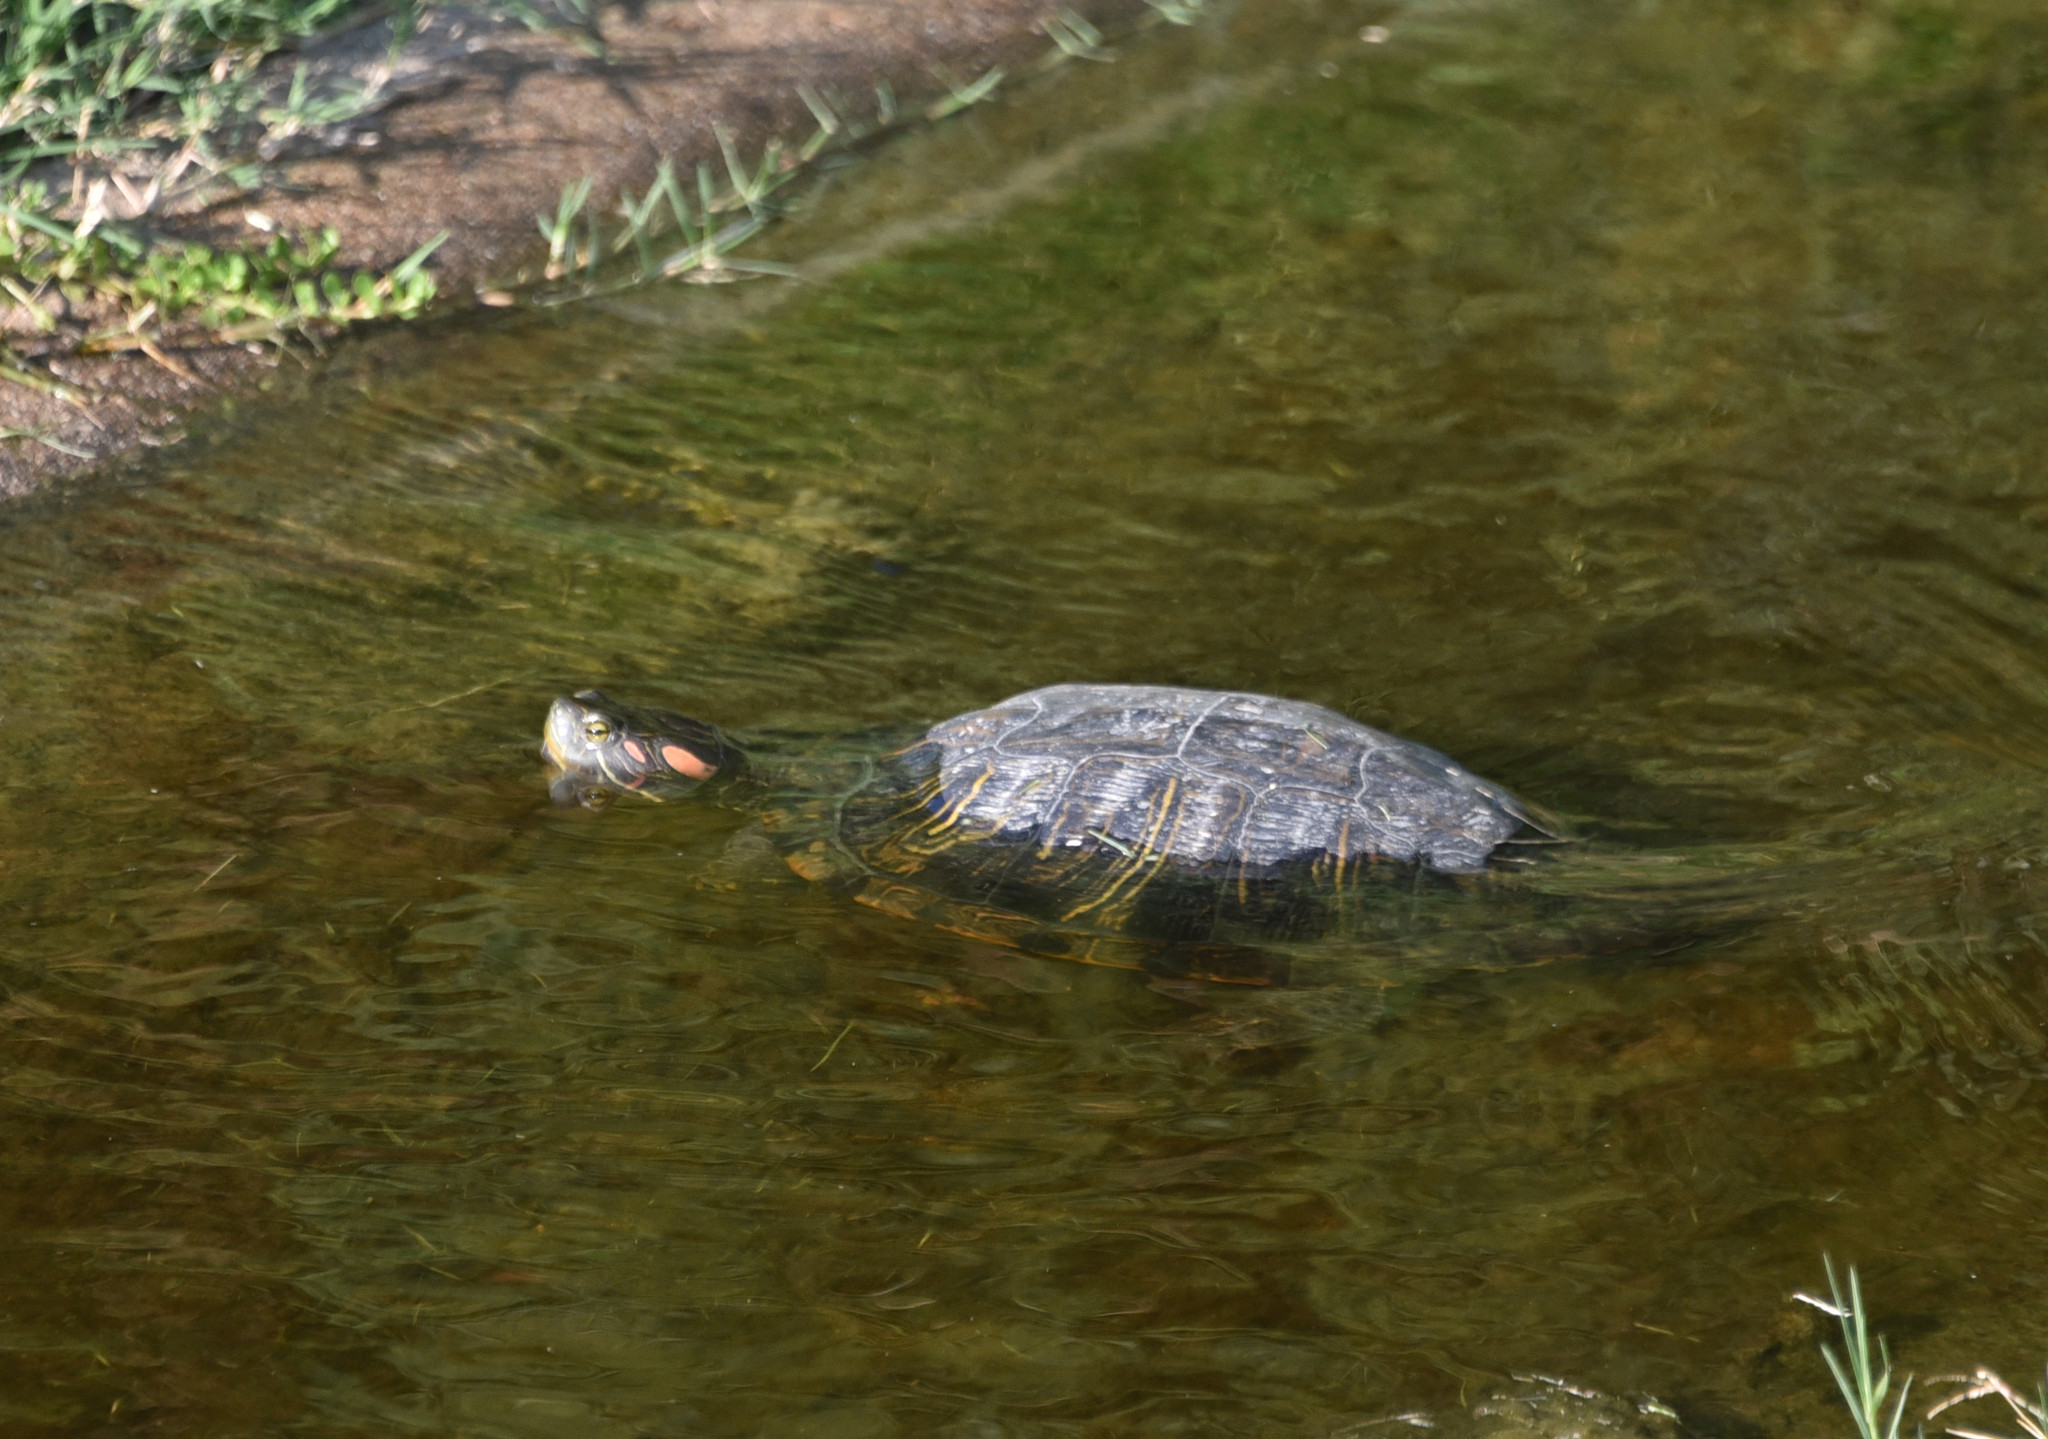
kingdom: Animalia
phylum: Chordata
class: Testudines
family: Emydidae
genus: Trachemys
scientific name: Trachemys scripta
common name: Slider
